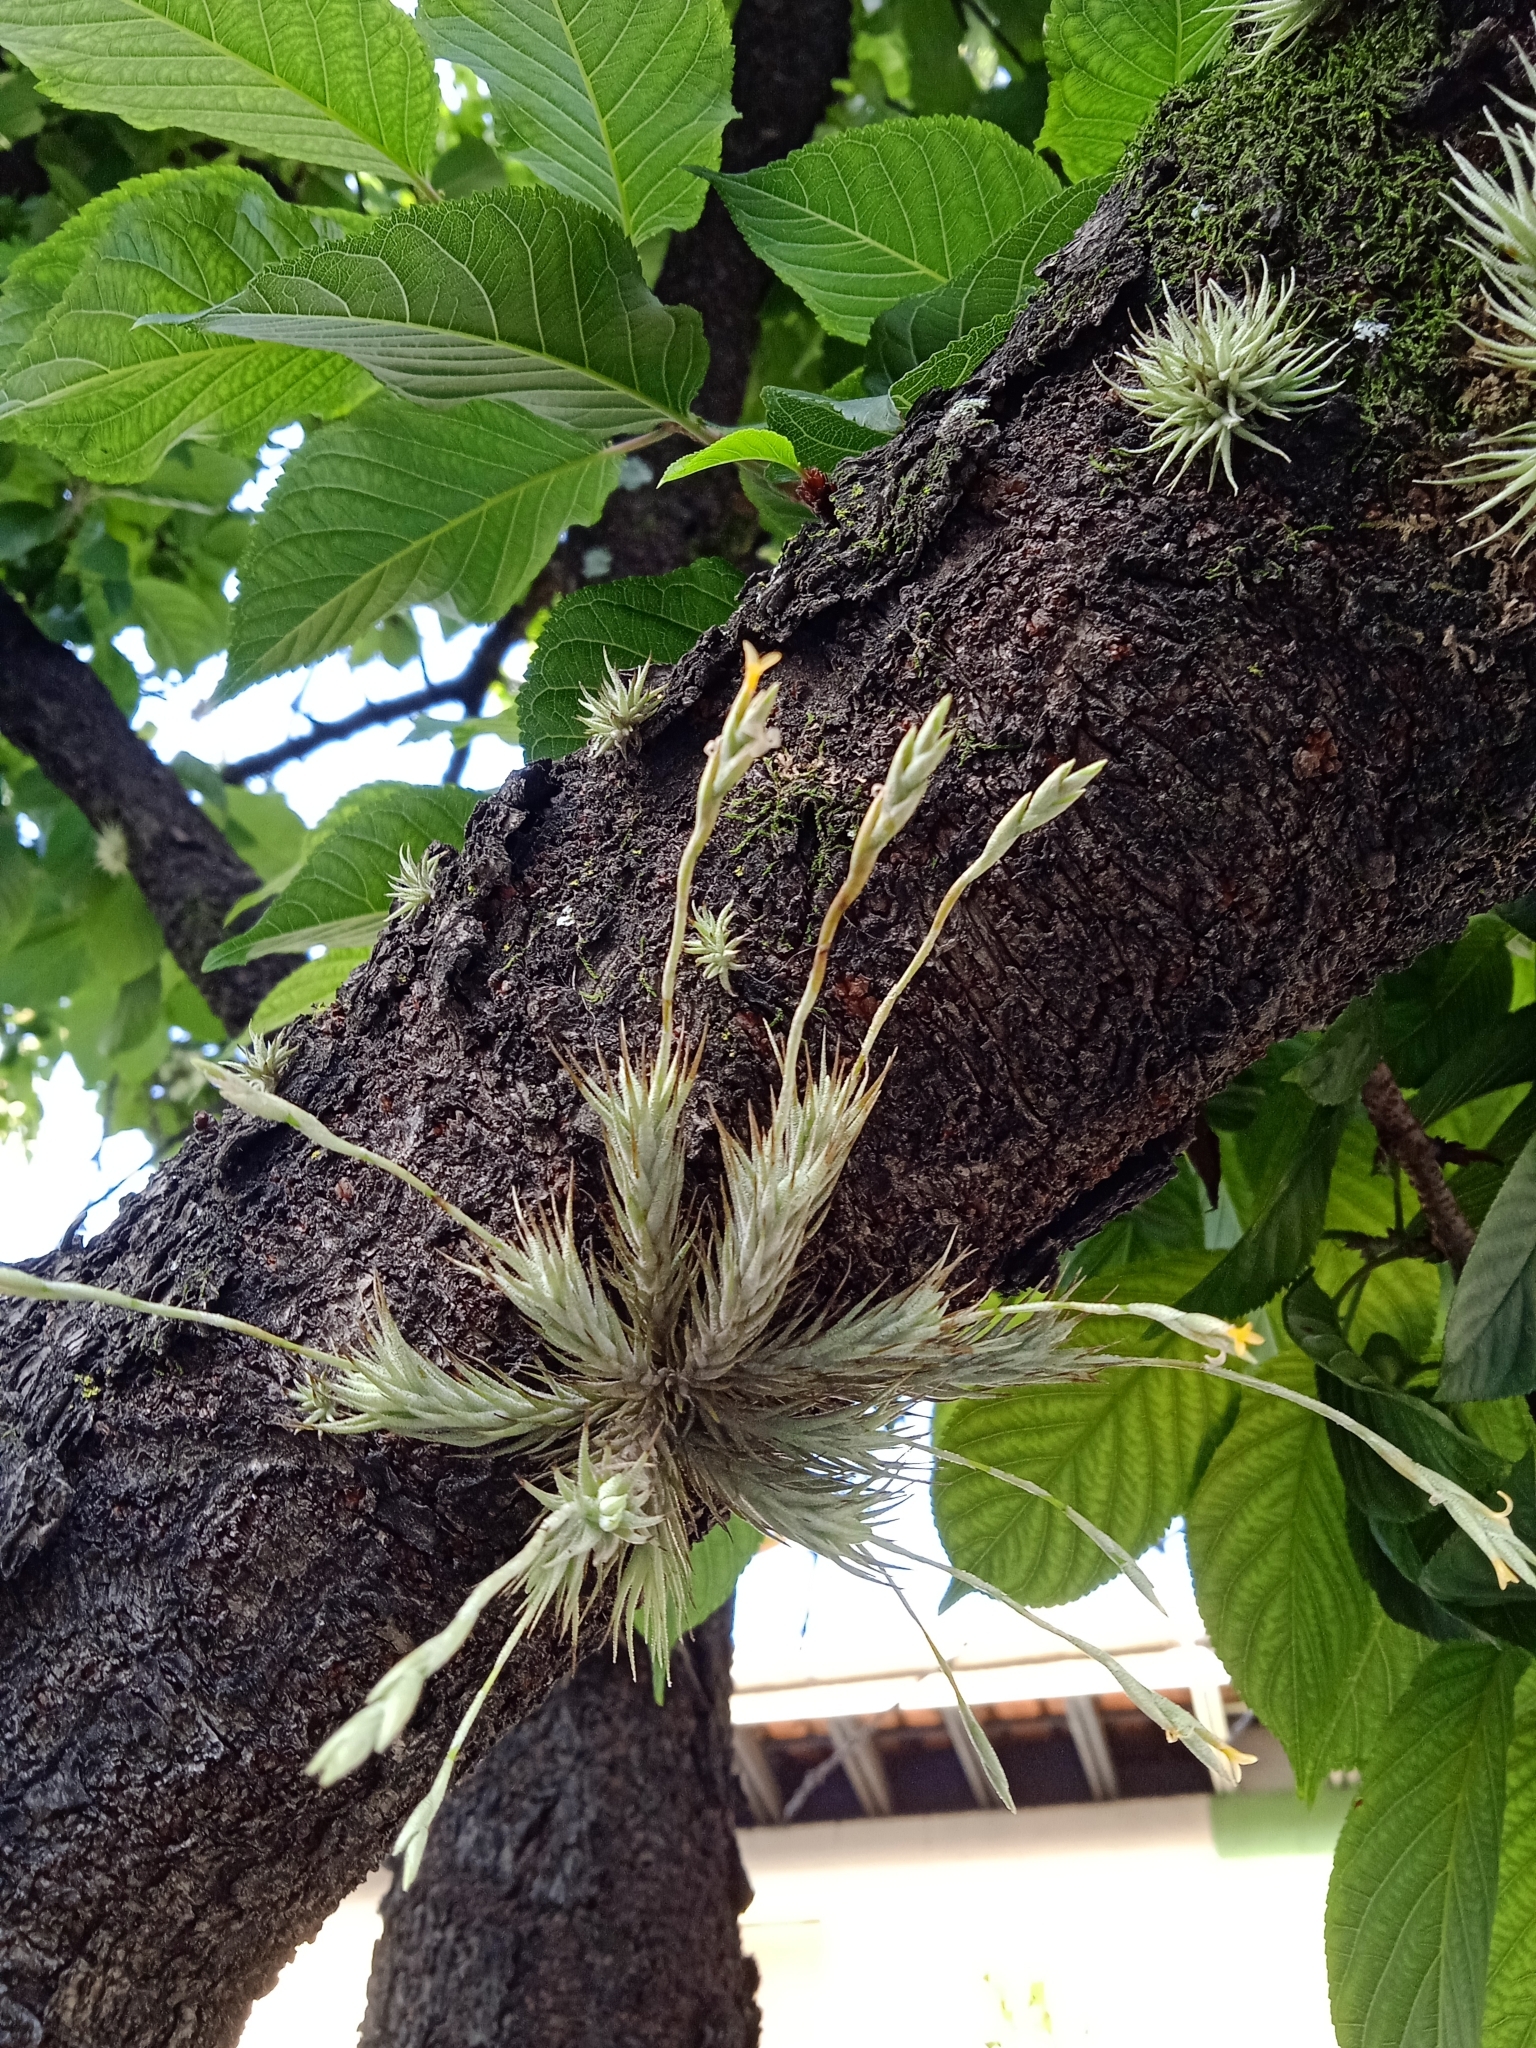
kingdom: Plantae
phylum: Tracheophyta
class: Liliopsida
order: Poales
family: Bromeliaceae
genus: Tillandsia
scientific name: Tillandsia tricholepis
